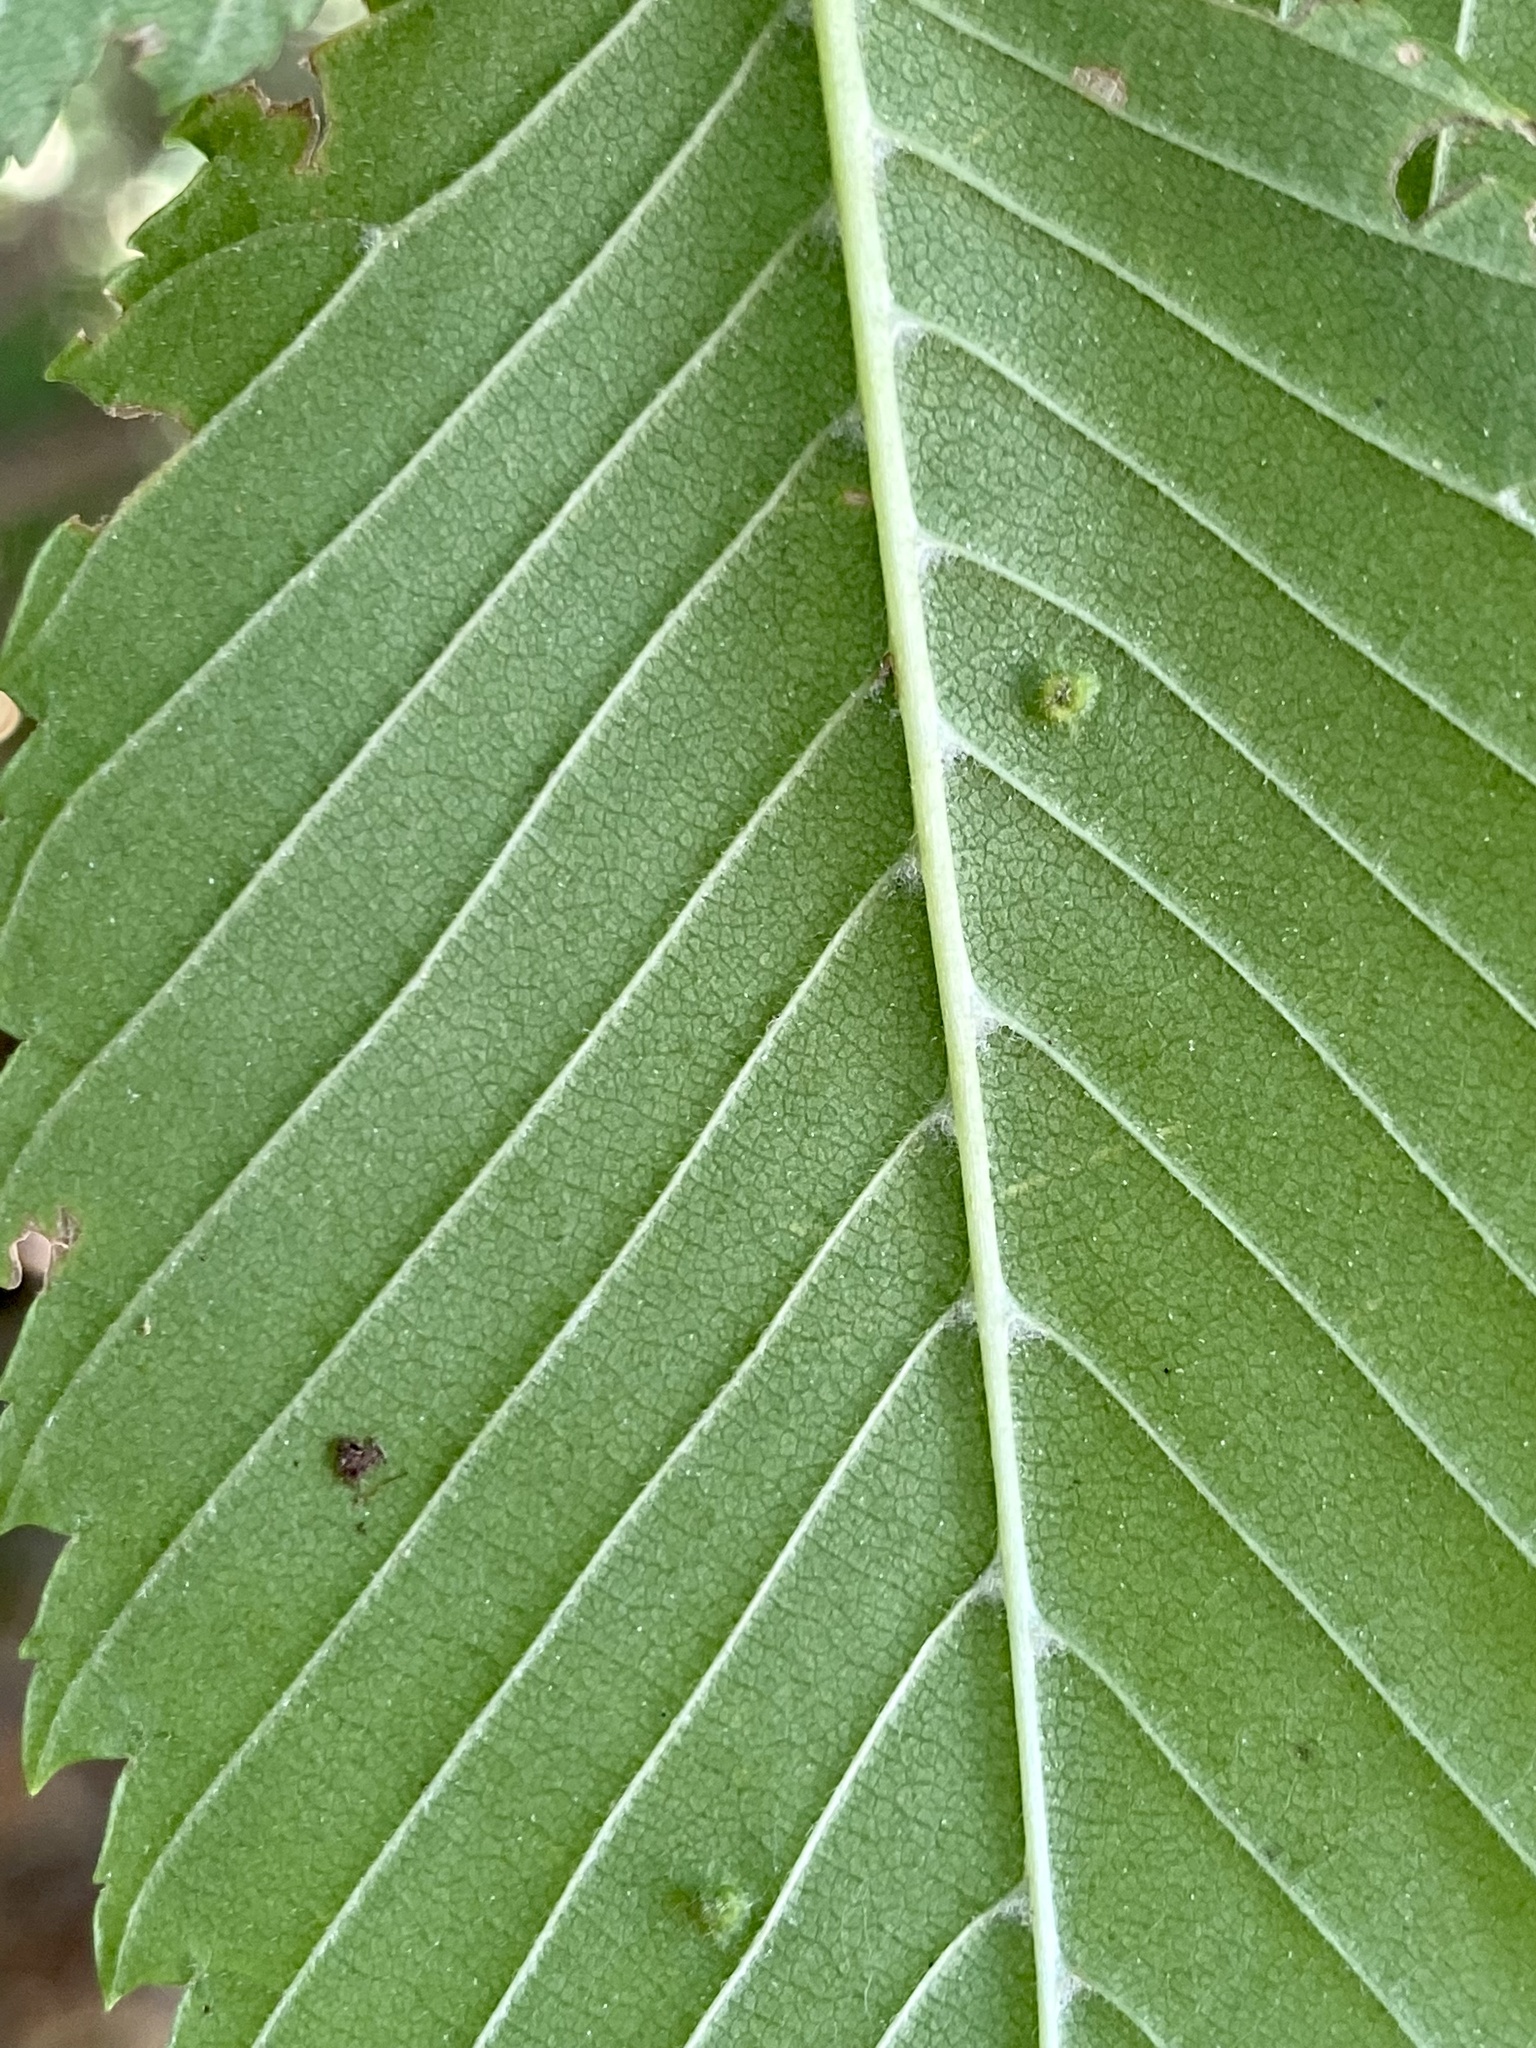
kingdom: Animalia
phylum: Arthropoda
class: Arachnida
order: Trombidiformes
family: Eriophyidae
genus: Aceria
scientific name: Aceria
